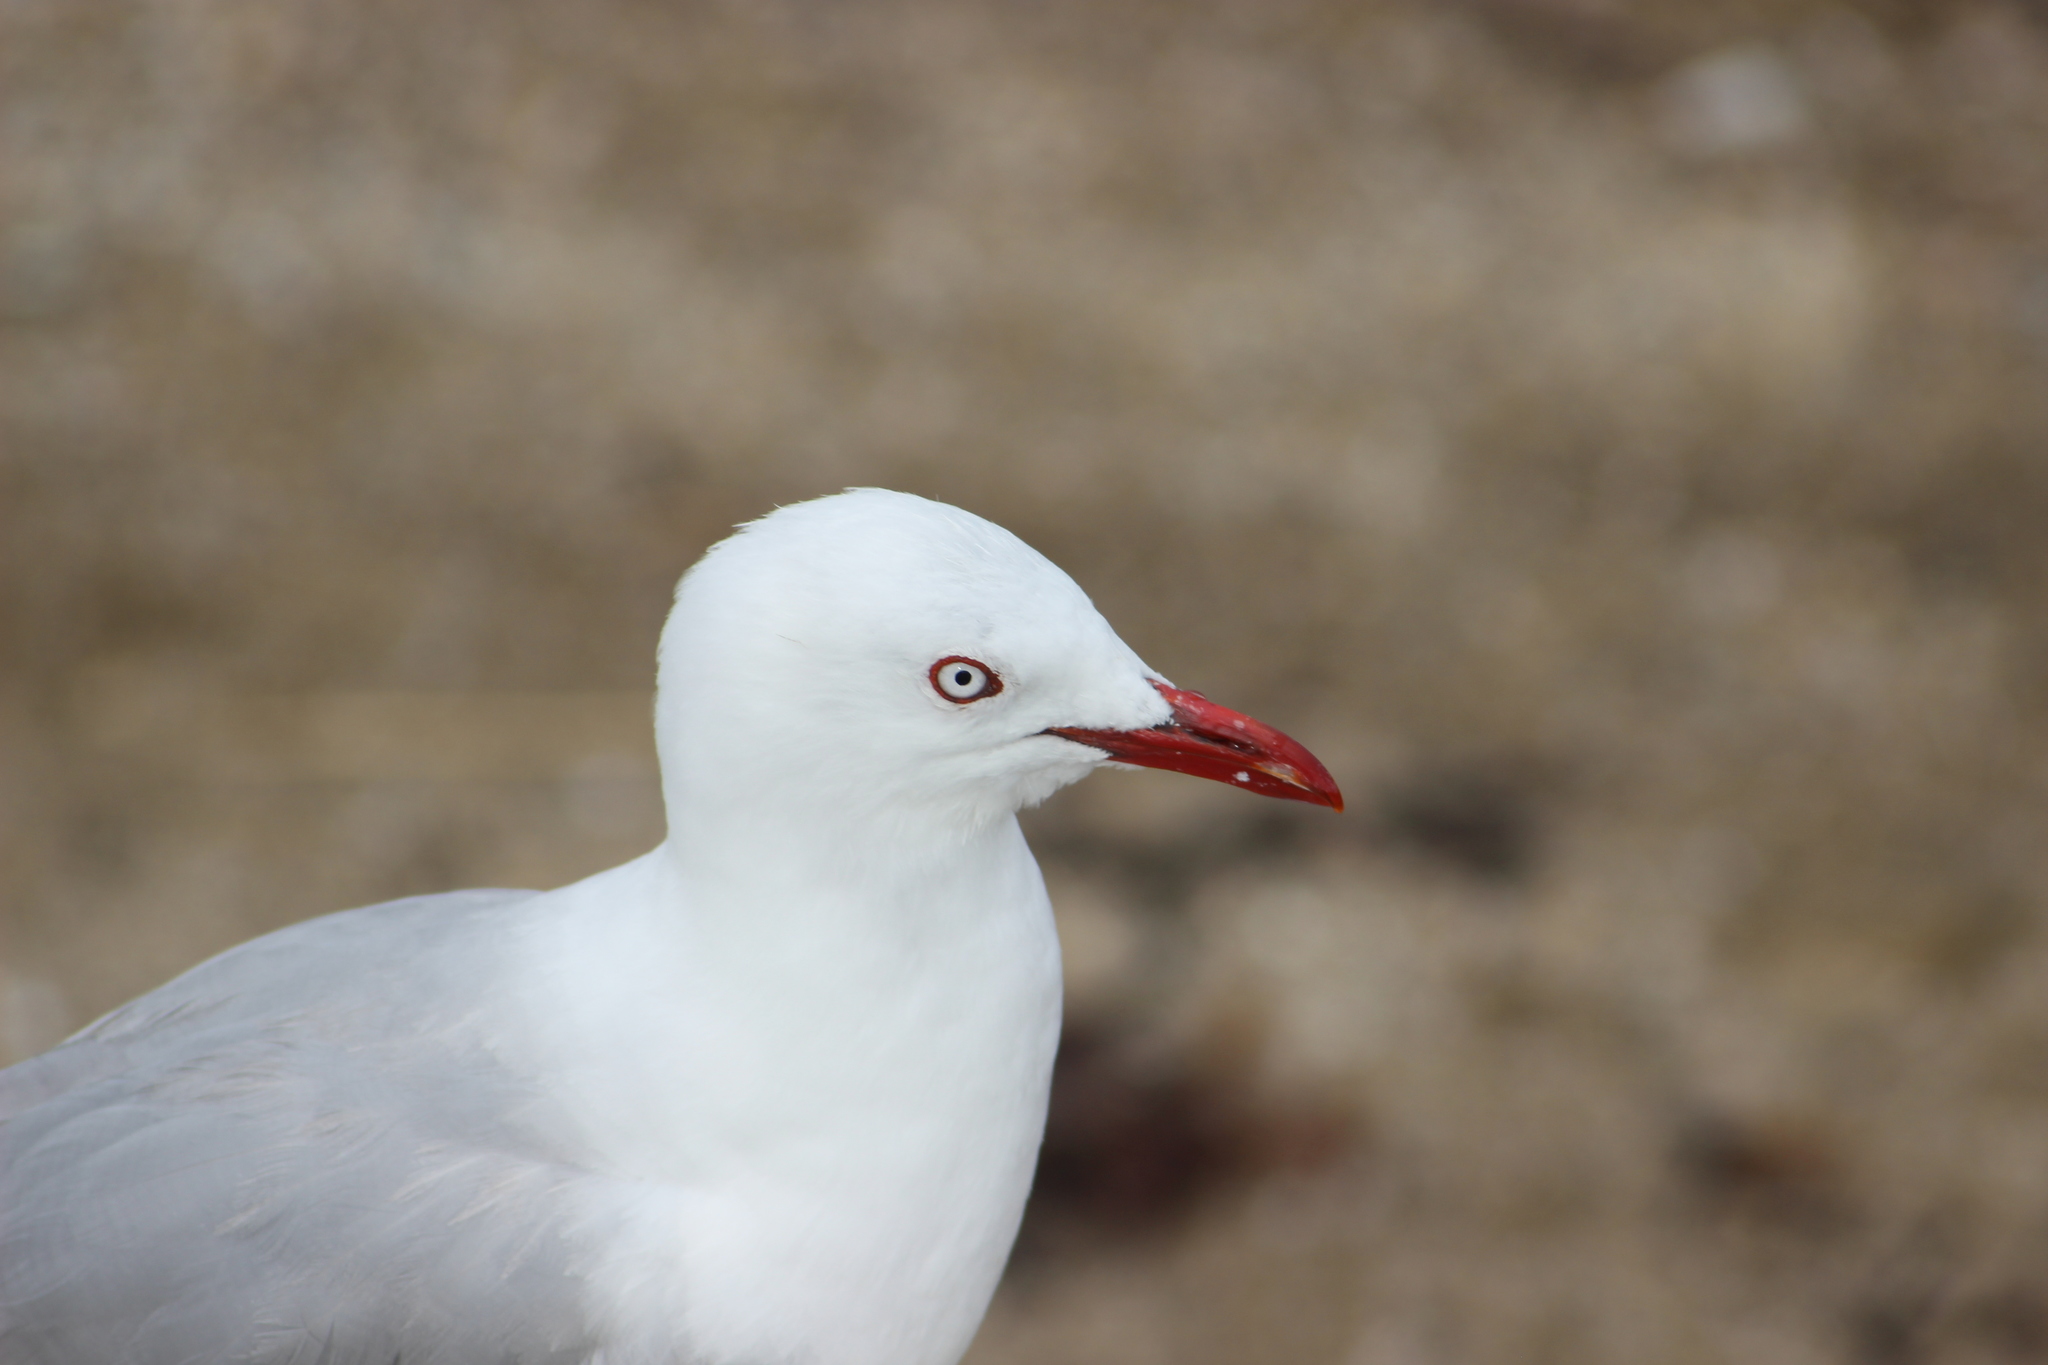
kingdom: Animalia
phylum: Chordata
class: Aves
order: Charadriiformes
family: Laridae
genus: Chroicocephalus
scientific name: Chroicocephalus novaehollandiae
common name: Silver gull
